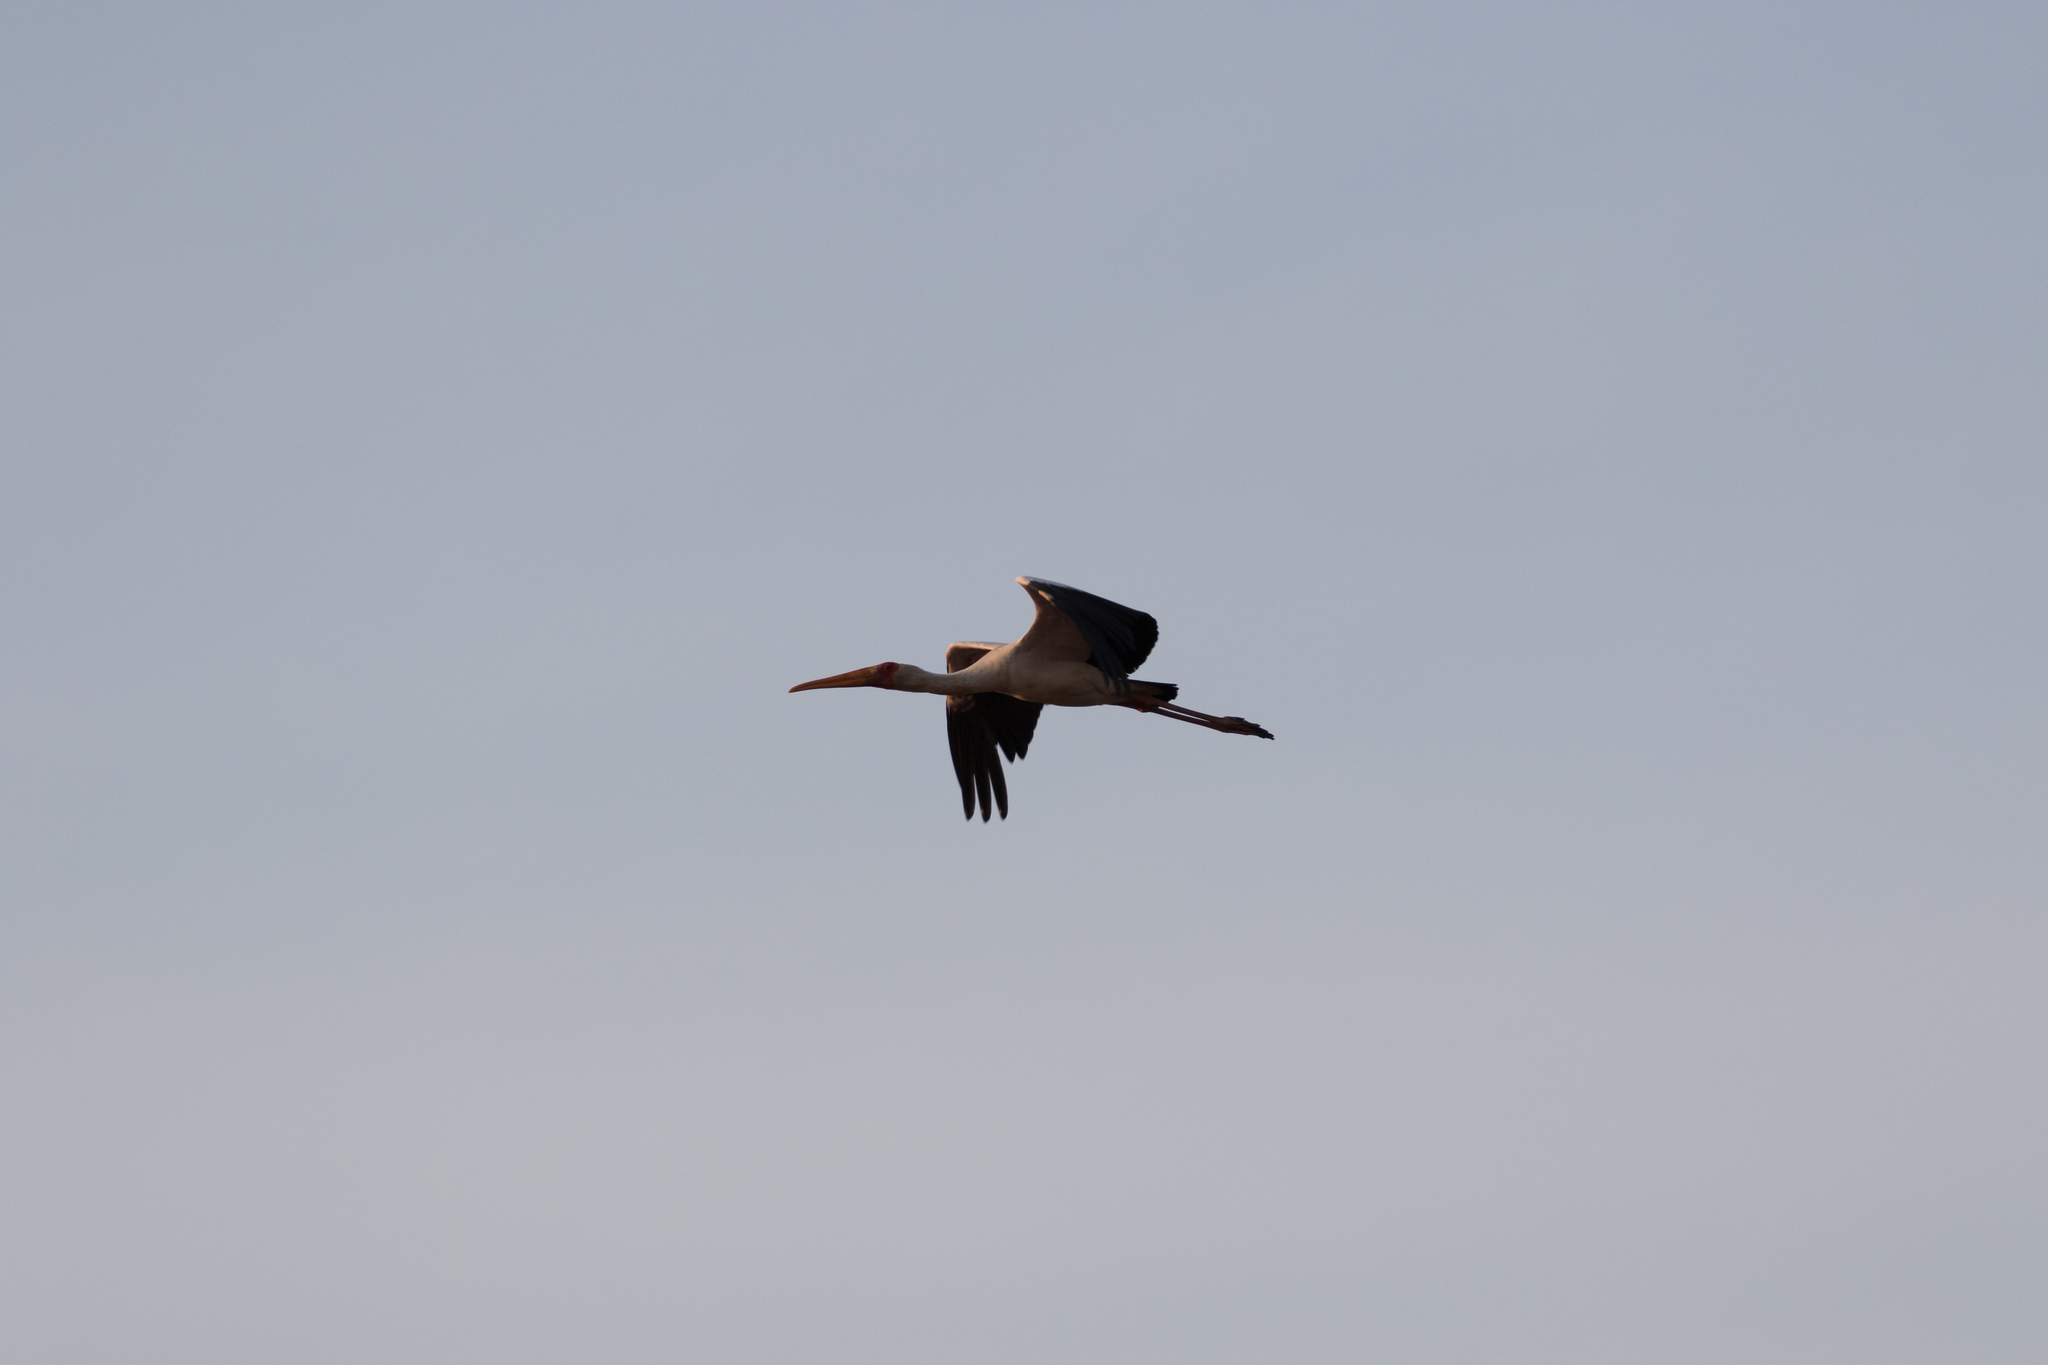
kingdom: Animalia
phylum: Chordata
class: Aves
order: Ciconiiformes
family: Ciconiidae
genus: Mycteria
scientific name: Mycteria ibis
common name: Yellow-billed stork
